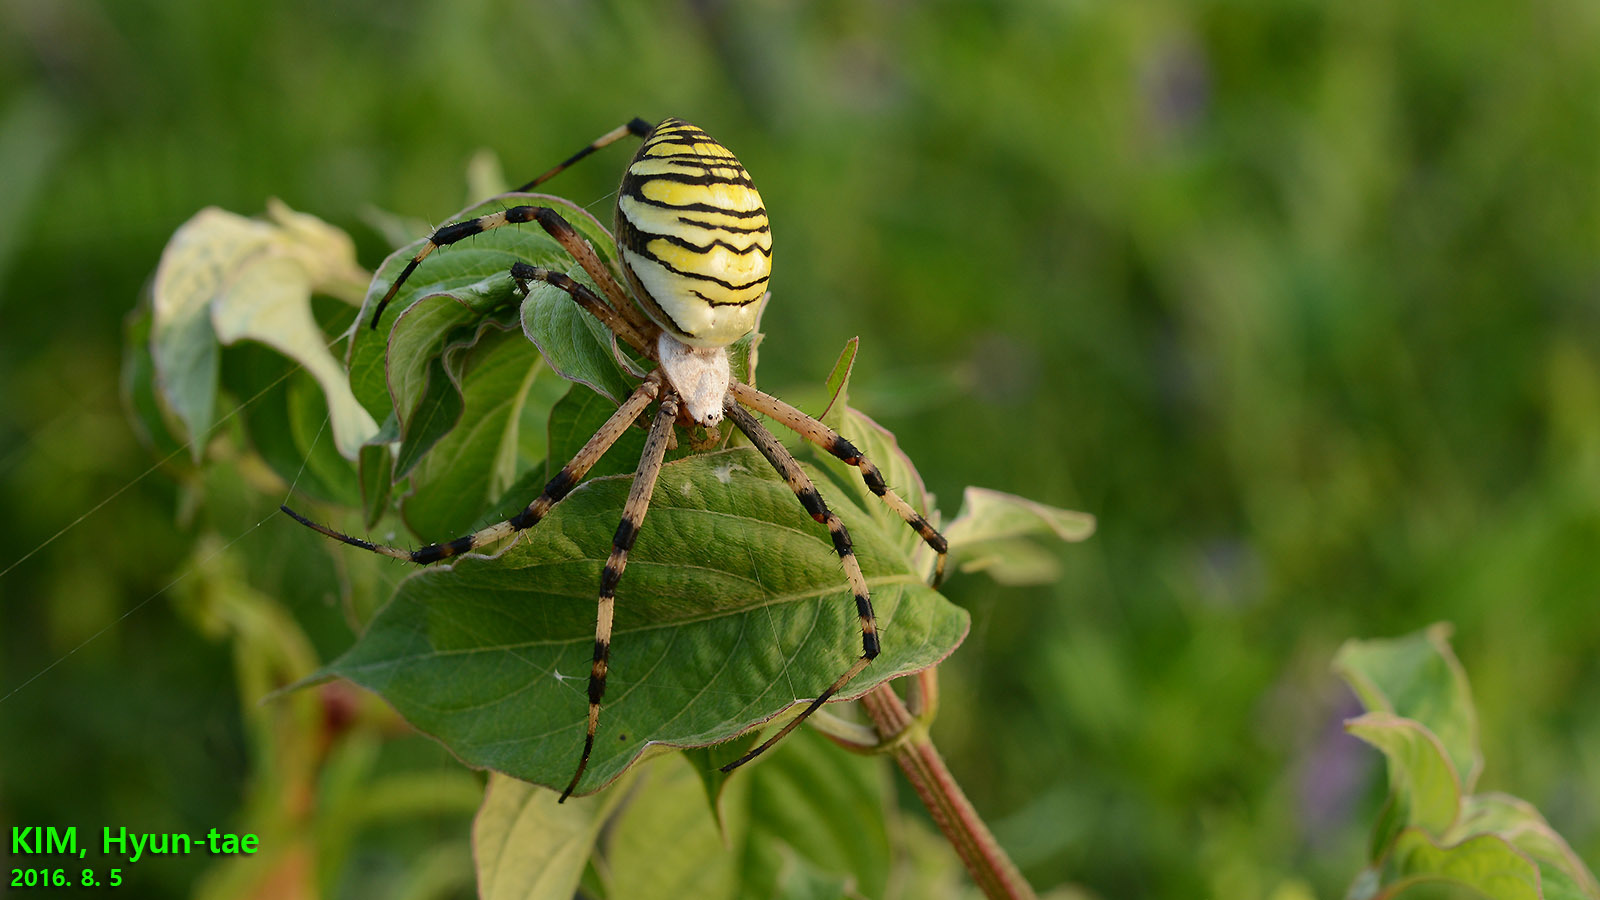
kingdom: Animalia
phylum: Arthropoda
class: Arachnida
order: Araneae
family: Araneidae
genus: Argiope
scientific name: Argiope bruennichi
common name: Wasp spider
